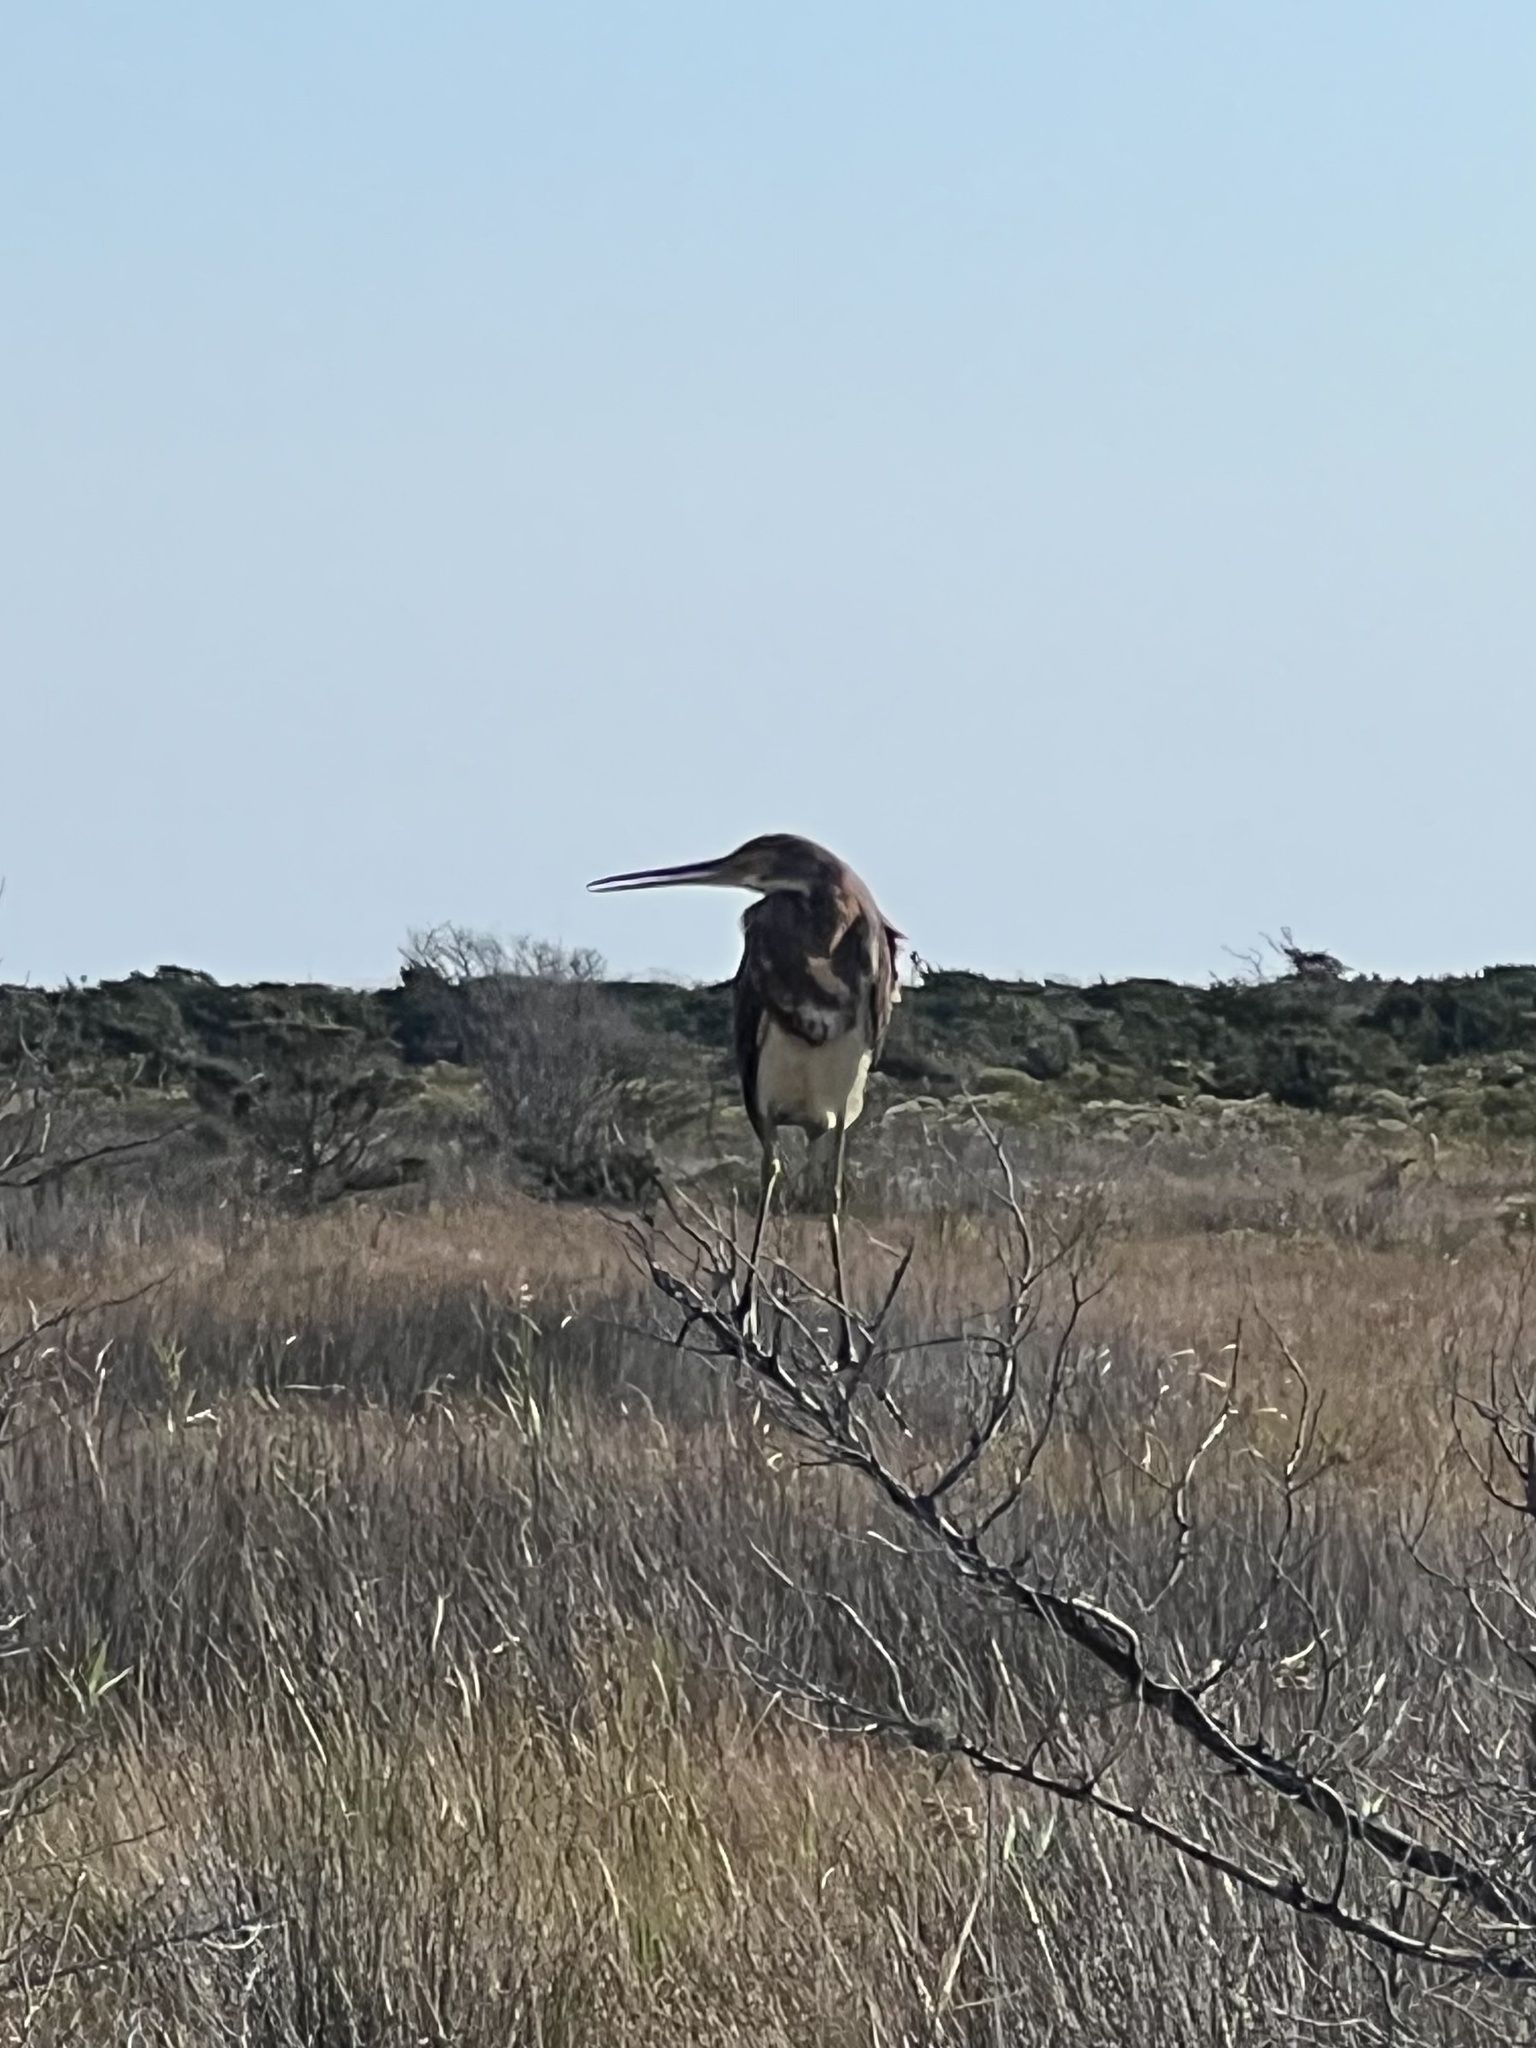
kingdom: Animalia
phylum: Chordata
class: Aves
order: Pelecaniformes
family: Ardeidae
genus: Egretta
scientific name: Egretta tricolor
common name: Tricolored heron
